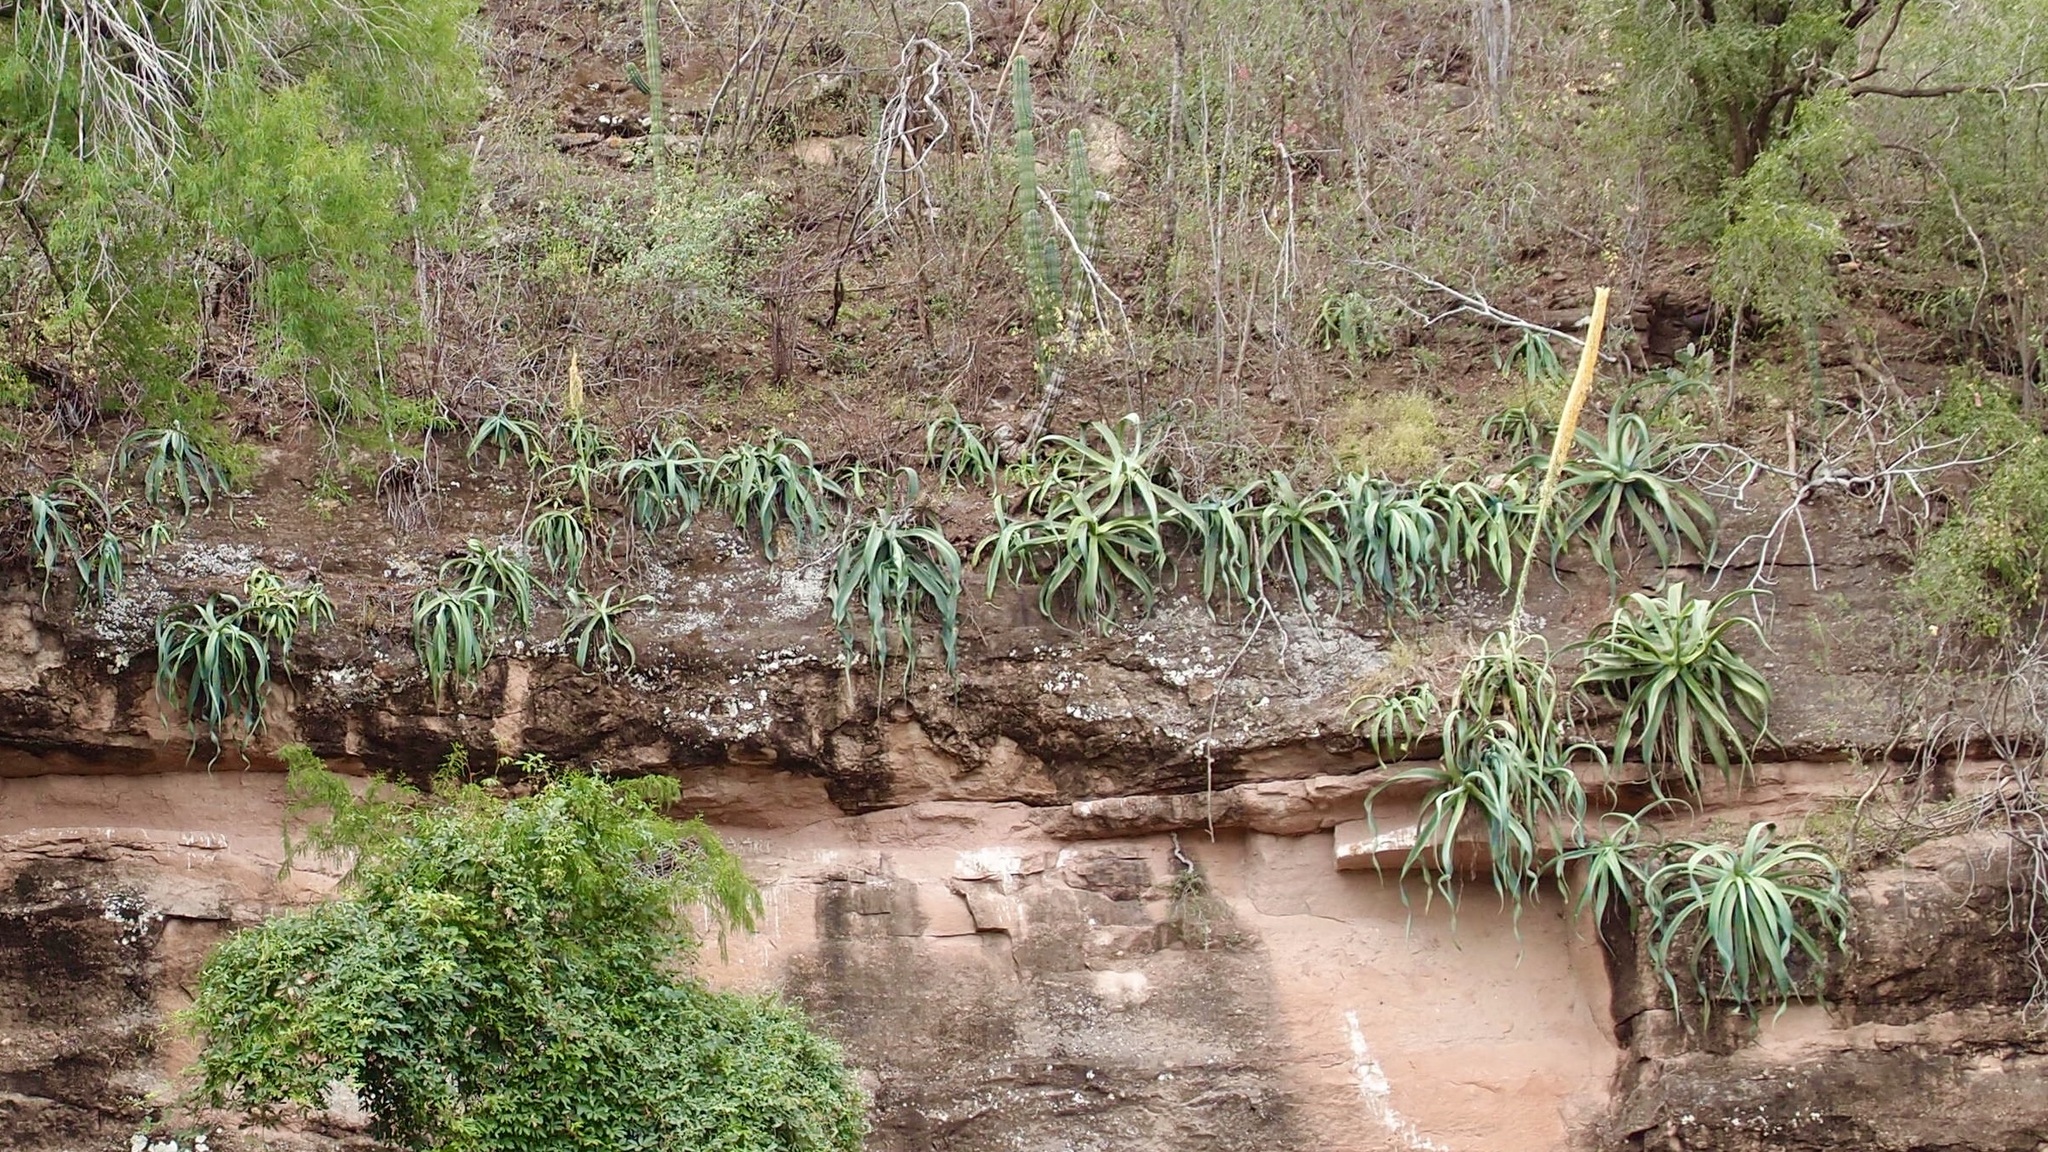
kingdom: Plantae
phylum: Tracheophyta
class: Liliopsida
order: Asparagales
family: Asparagaceae
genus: Agave
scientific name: Agave vilmoriniana
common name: Octopus plant
